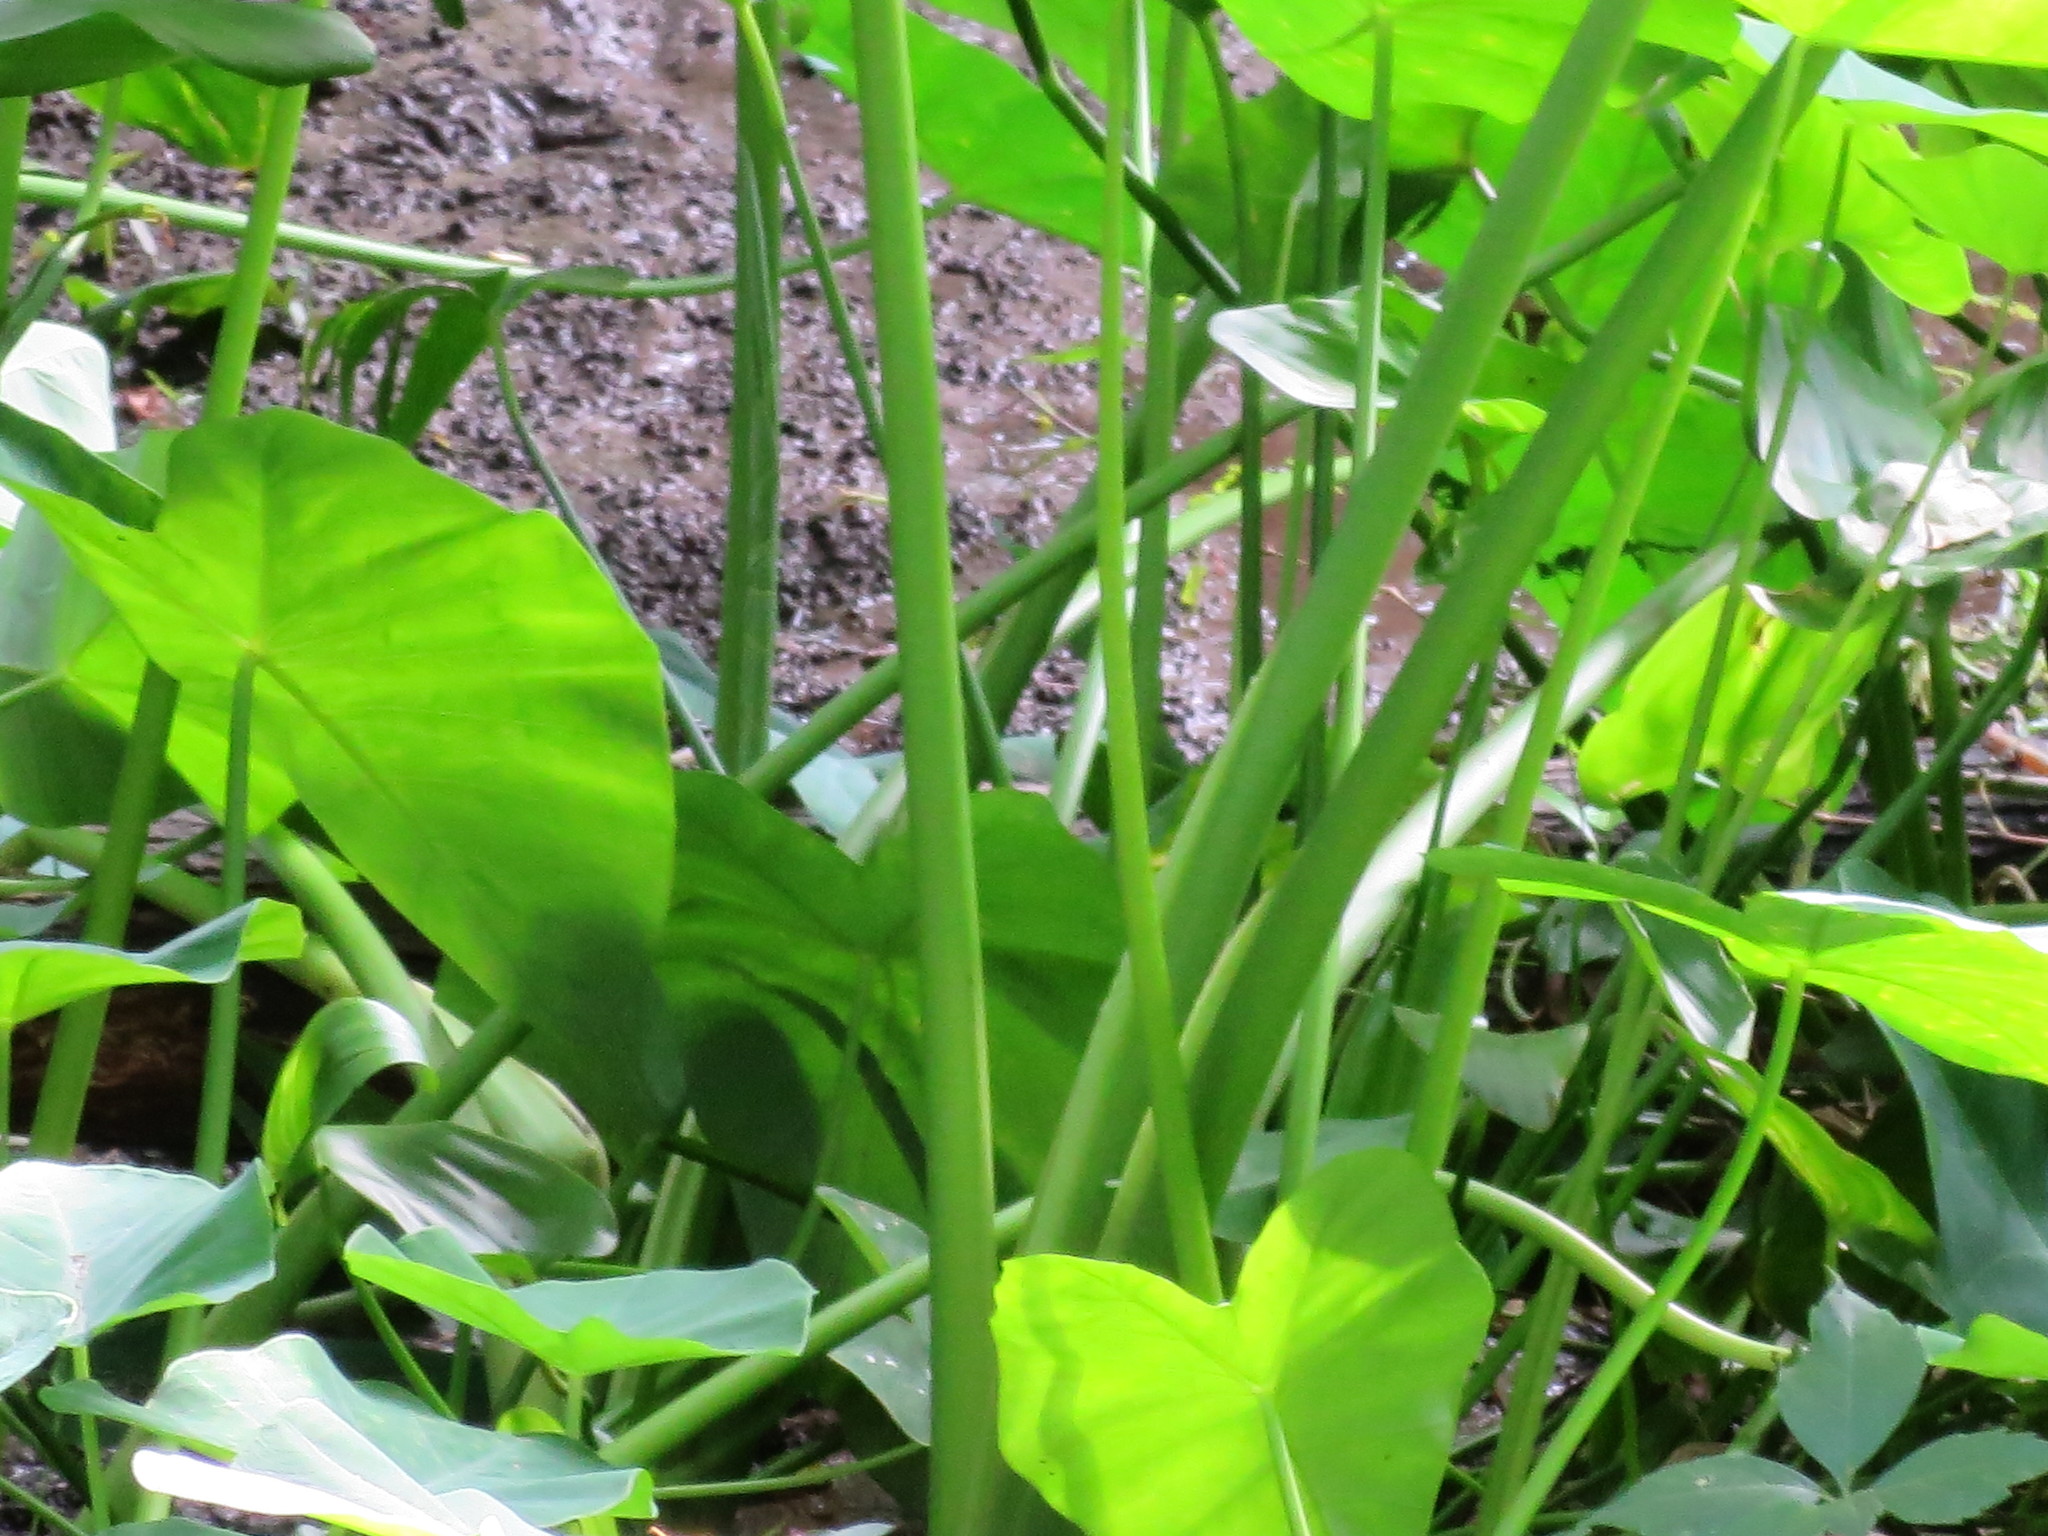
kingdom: Plantae
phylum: Tracheophyta
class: Liliopsida
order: Alismatales
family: Araceae
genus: Colocasia
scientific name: Colocasia esculenta
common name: Taro
